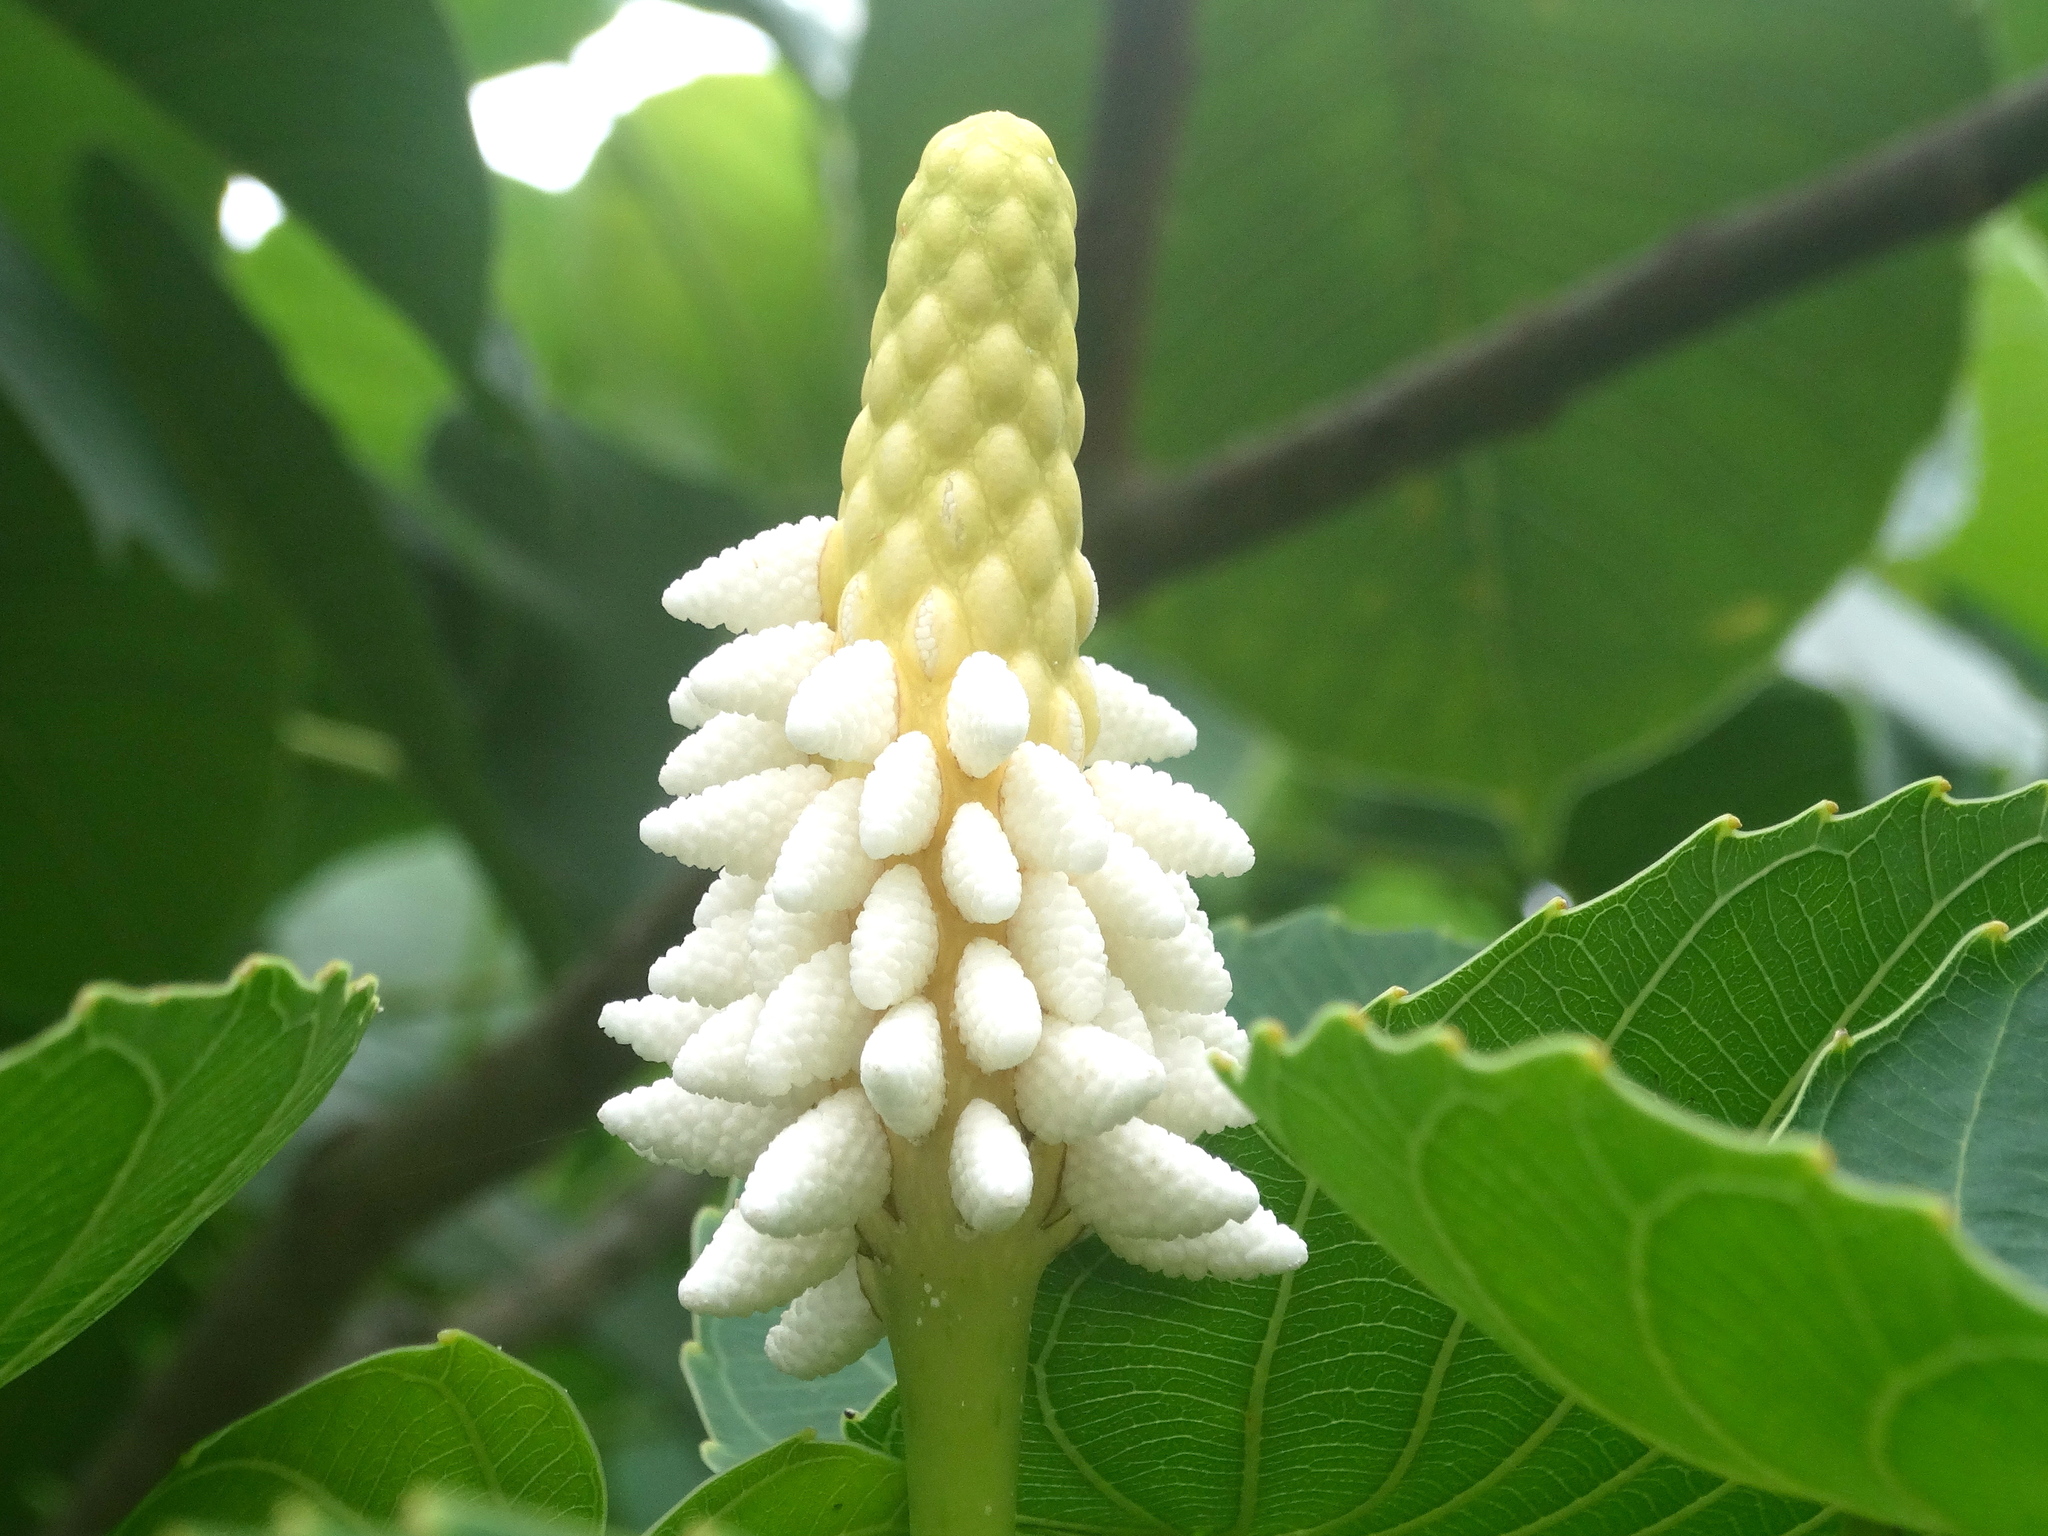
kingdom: Plantae
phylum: Tracheophyta
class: Magnoliopsida
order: Malpighiales
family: Euphorbiaceae
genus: Hura
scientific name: Hura polyandra
